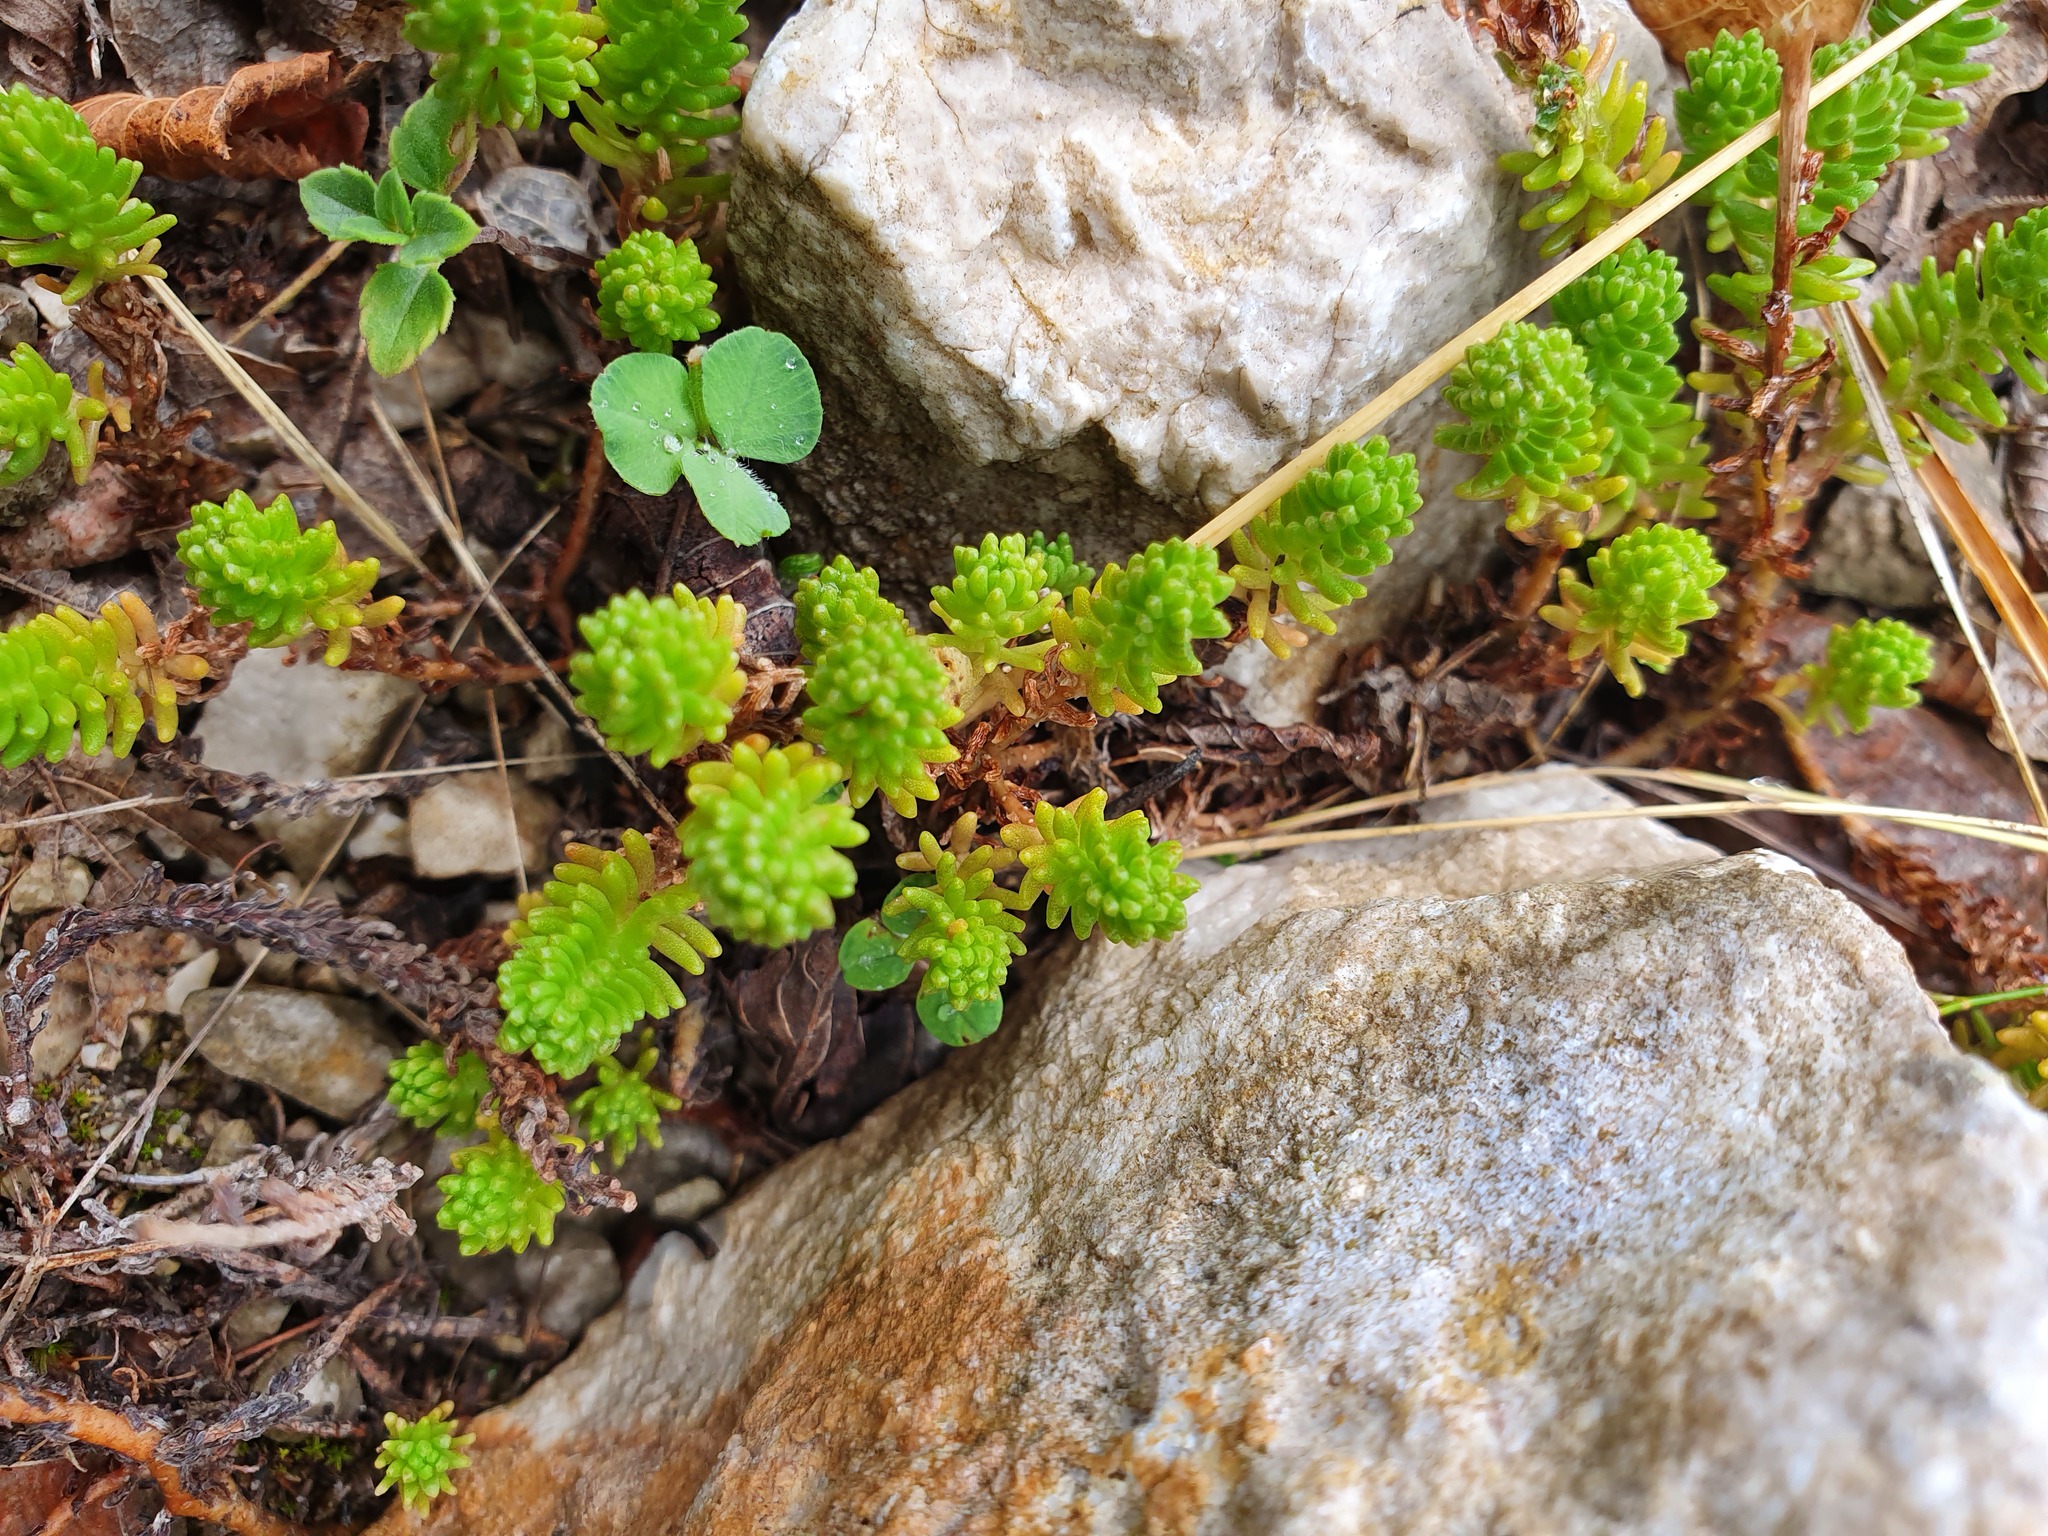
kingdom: Plantae
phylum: Tracheophyta
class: Magnoliopsida
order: Saxifragales
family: Crassulaceae
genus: Sedum
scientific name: Sedum sexangulare
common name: Tasteless stonecrop
